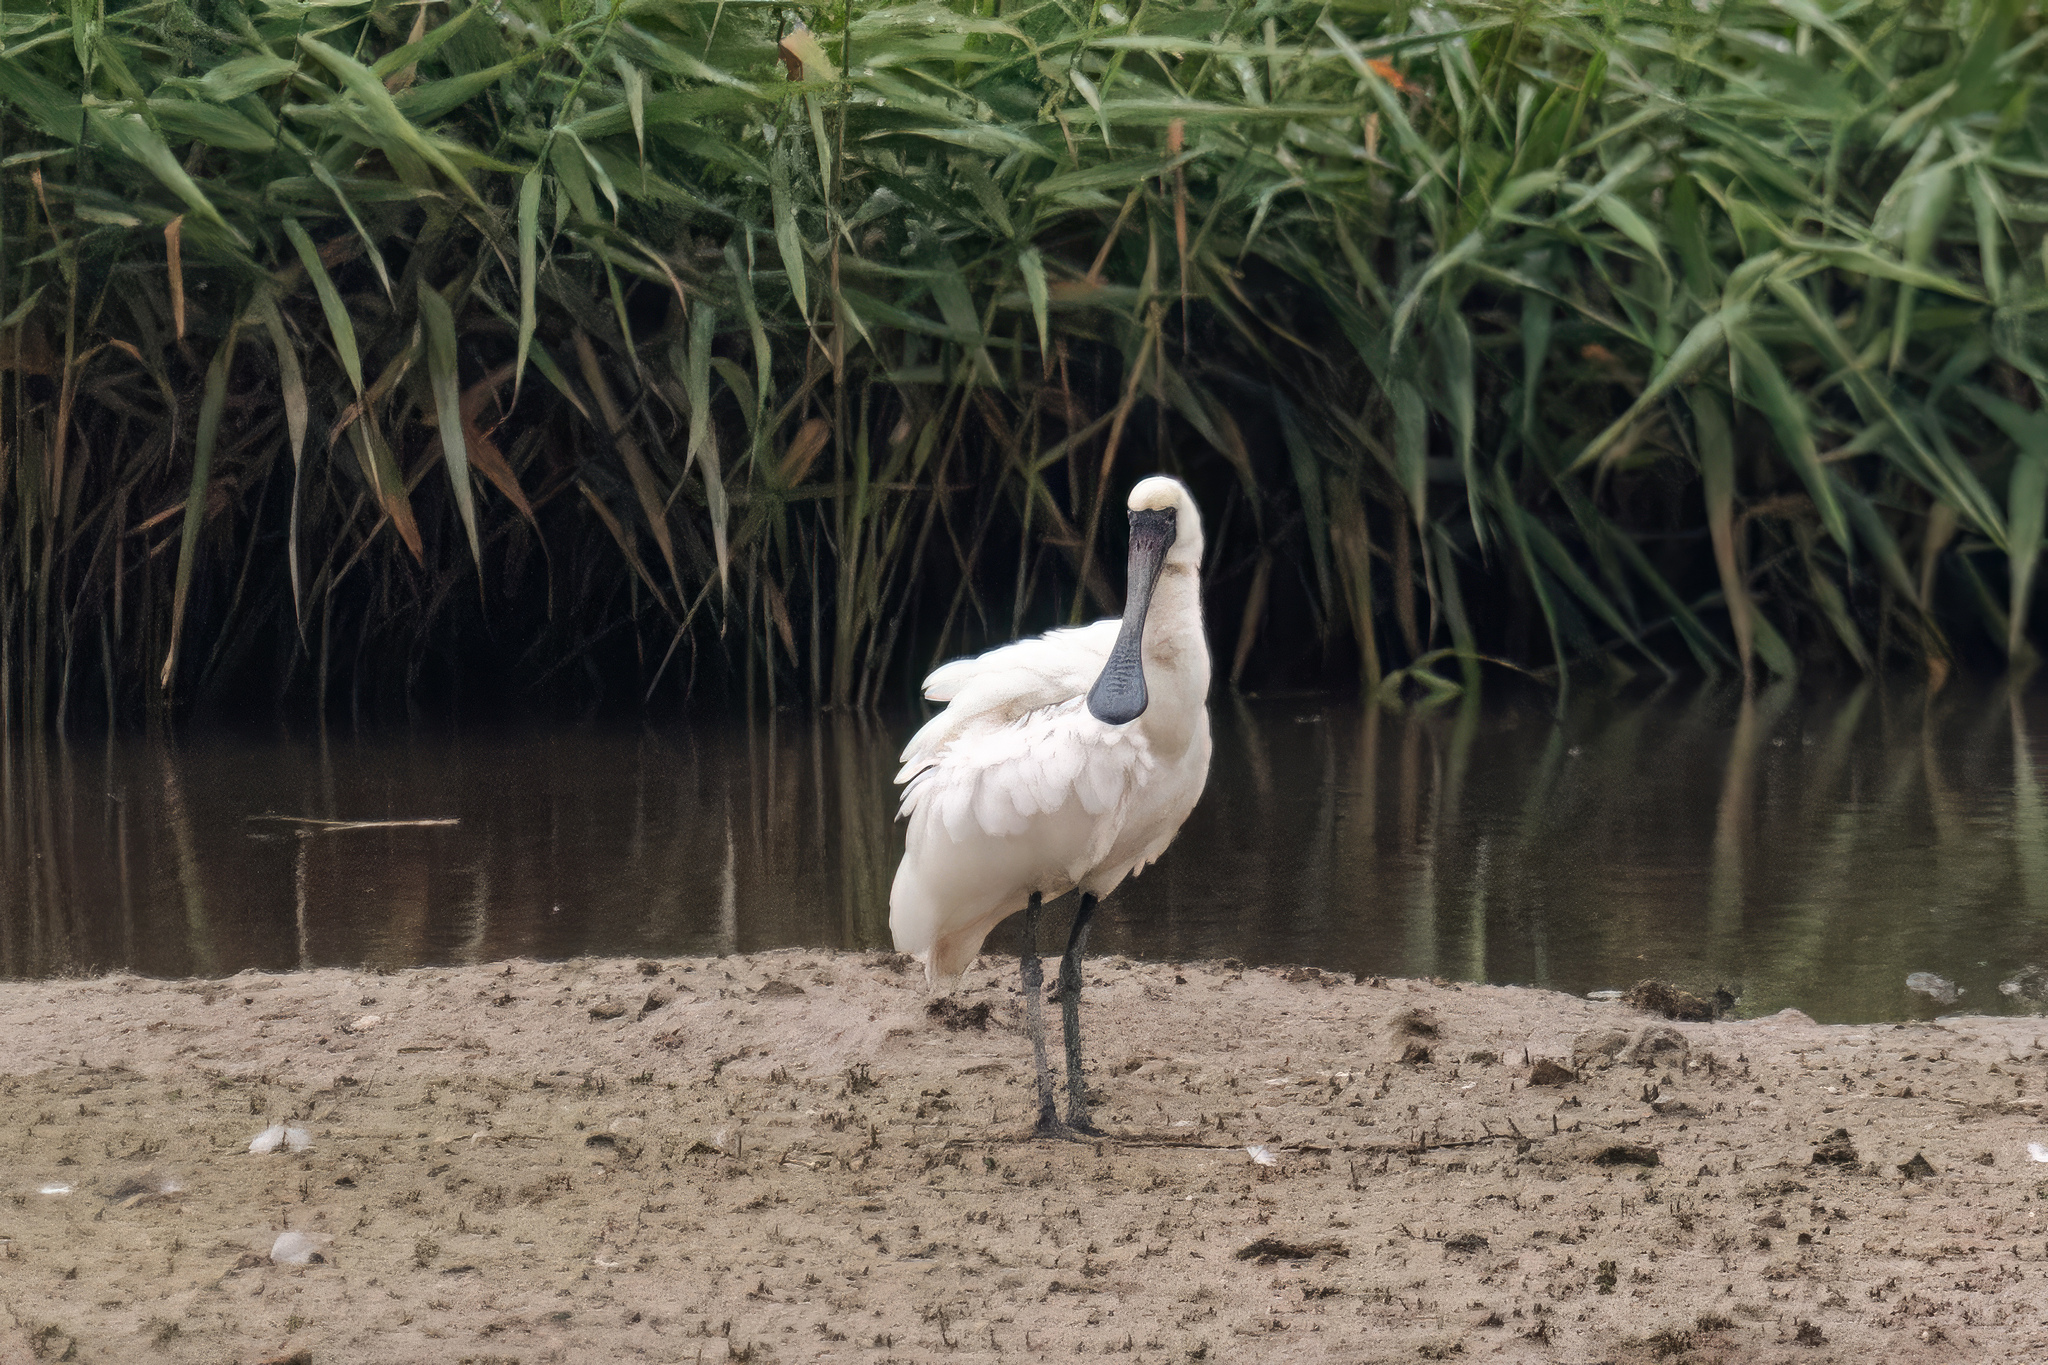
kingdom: Animalia
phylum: Chordata
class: Aves
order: Pelecaniformes
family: Threskiornithidae
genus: Platalea
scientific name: Platalea minor
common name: Black-faced spoonbill
